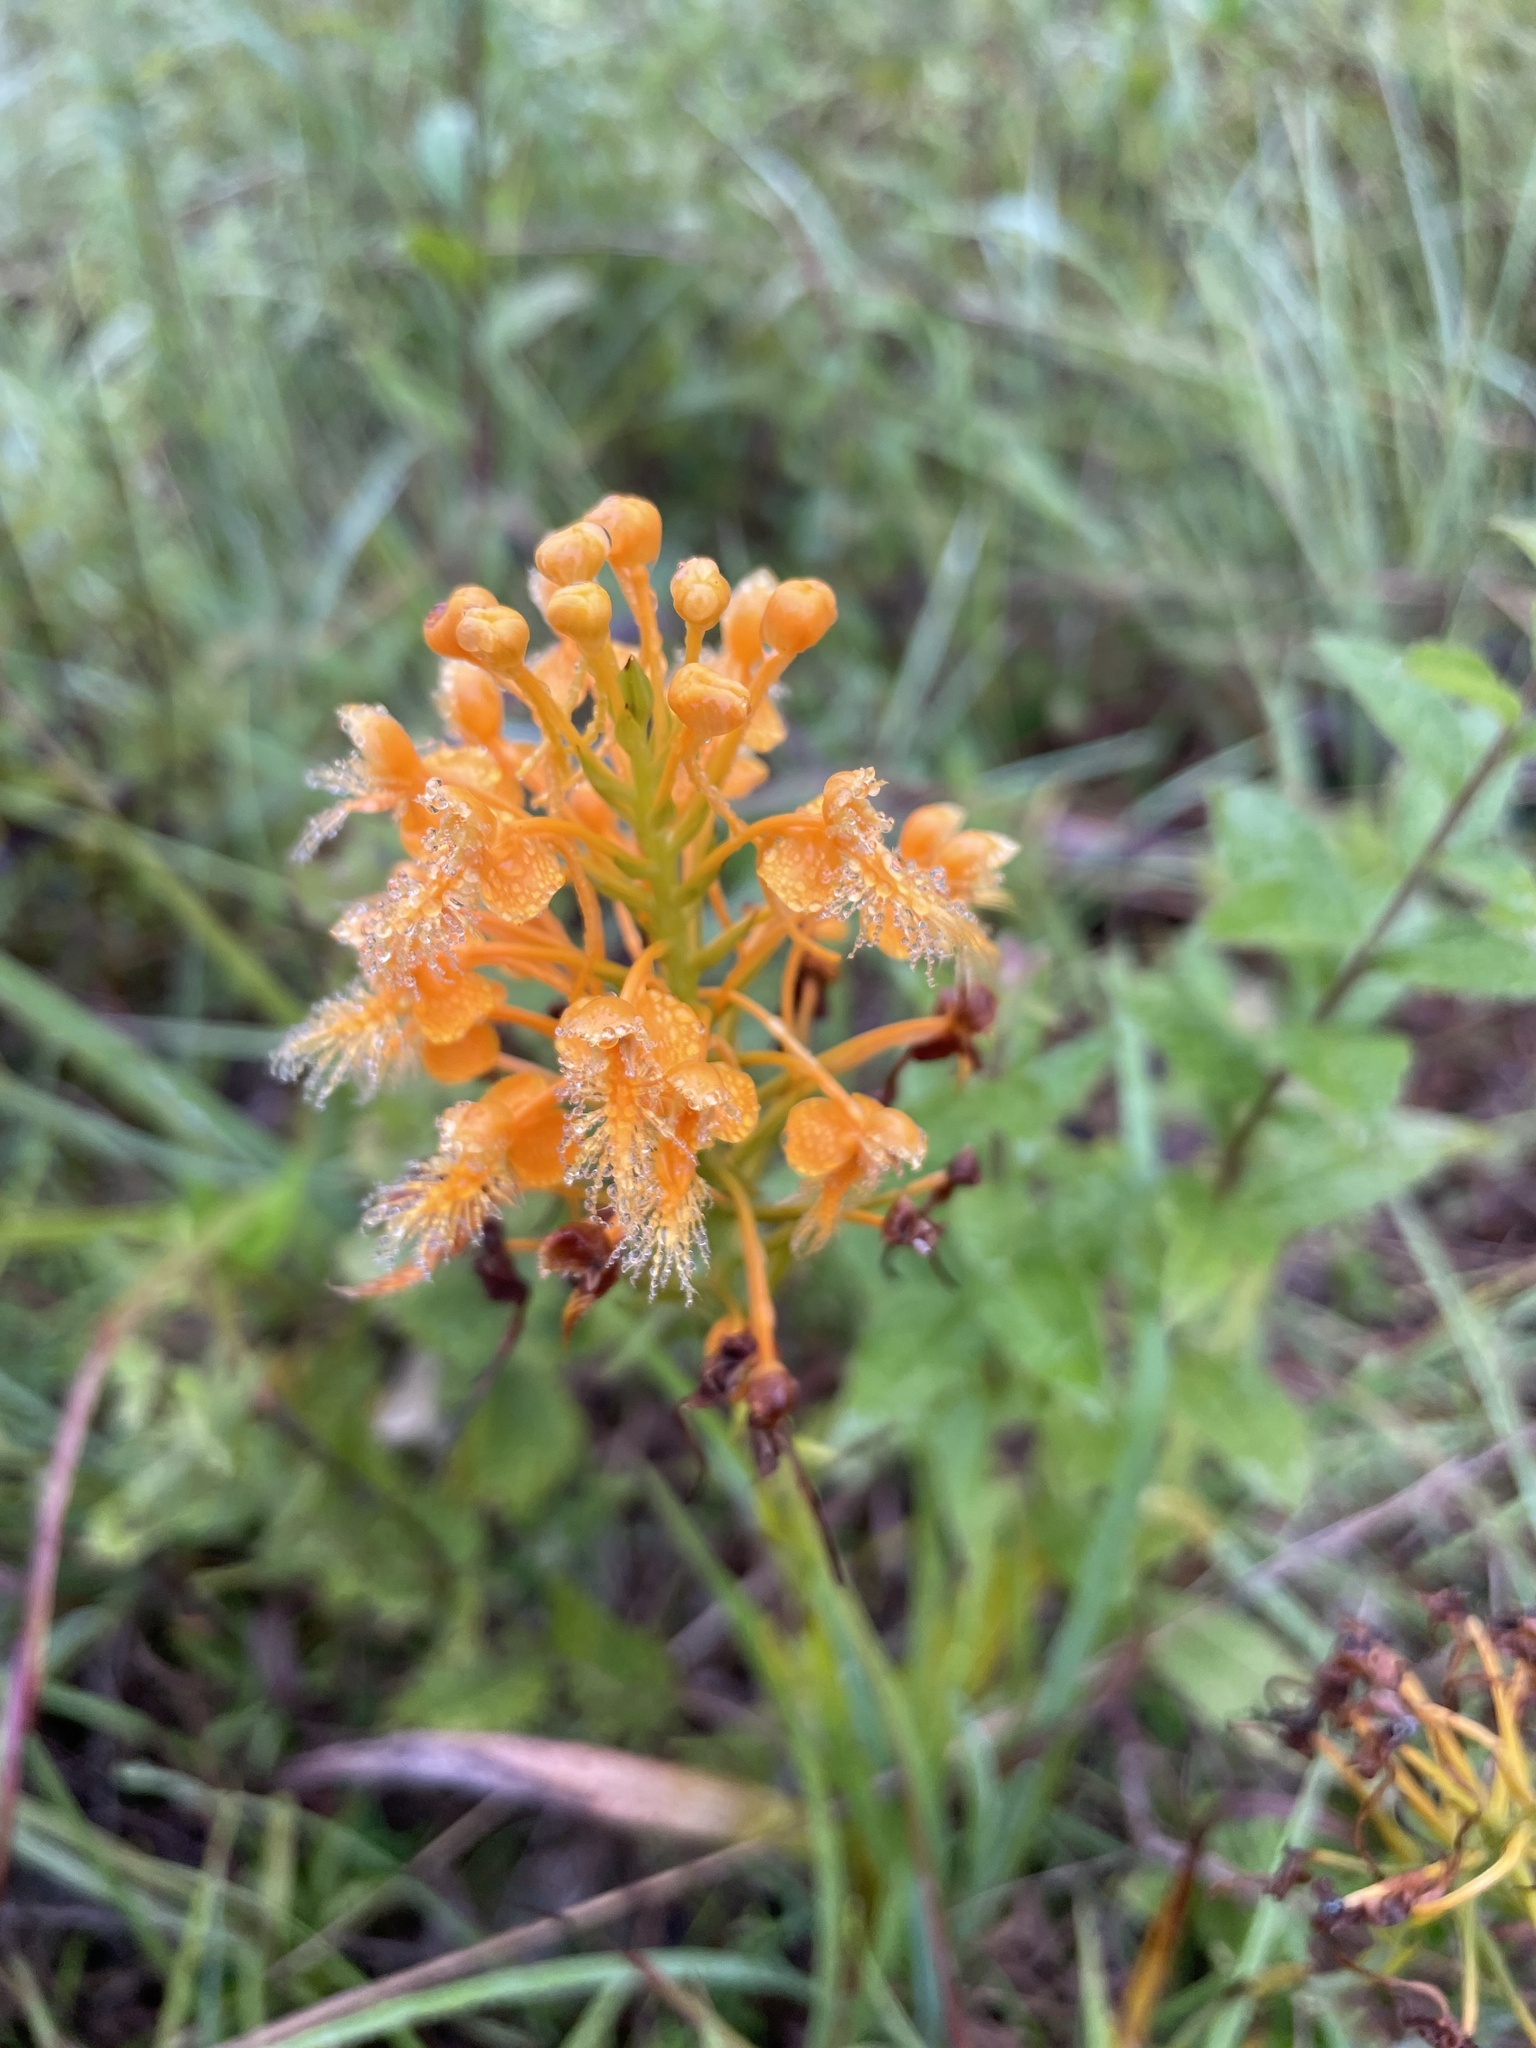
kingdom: Plantae
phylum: Tracheophyta
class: Liliopsida
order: Asparagales
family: Orchidaceae
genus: Platanthera
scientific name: Platanthera ciliaris
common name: Yellow fringed orchid
